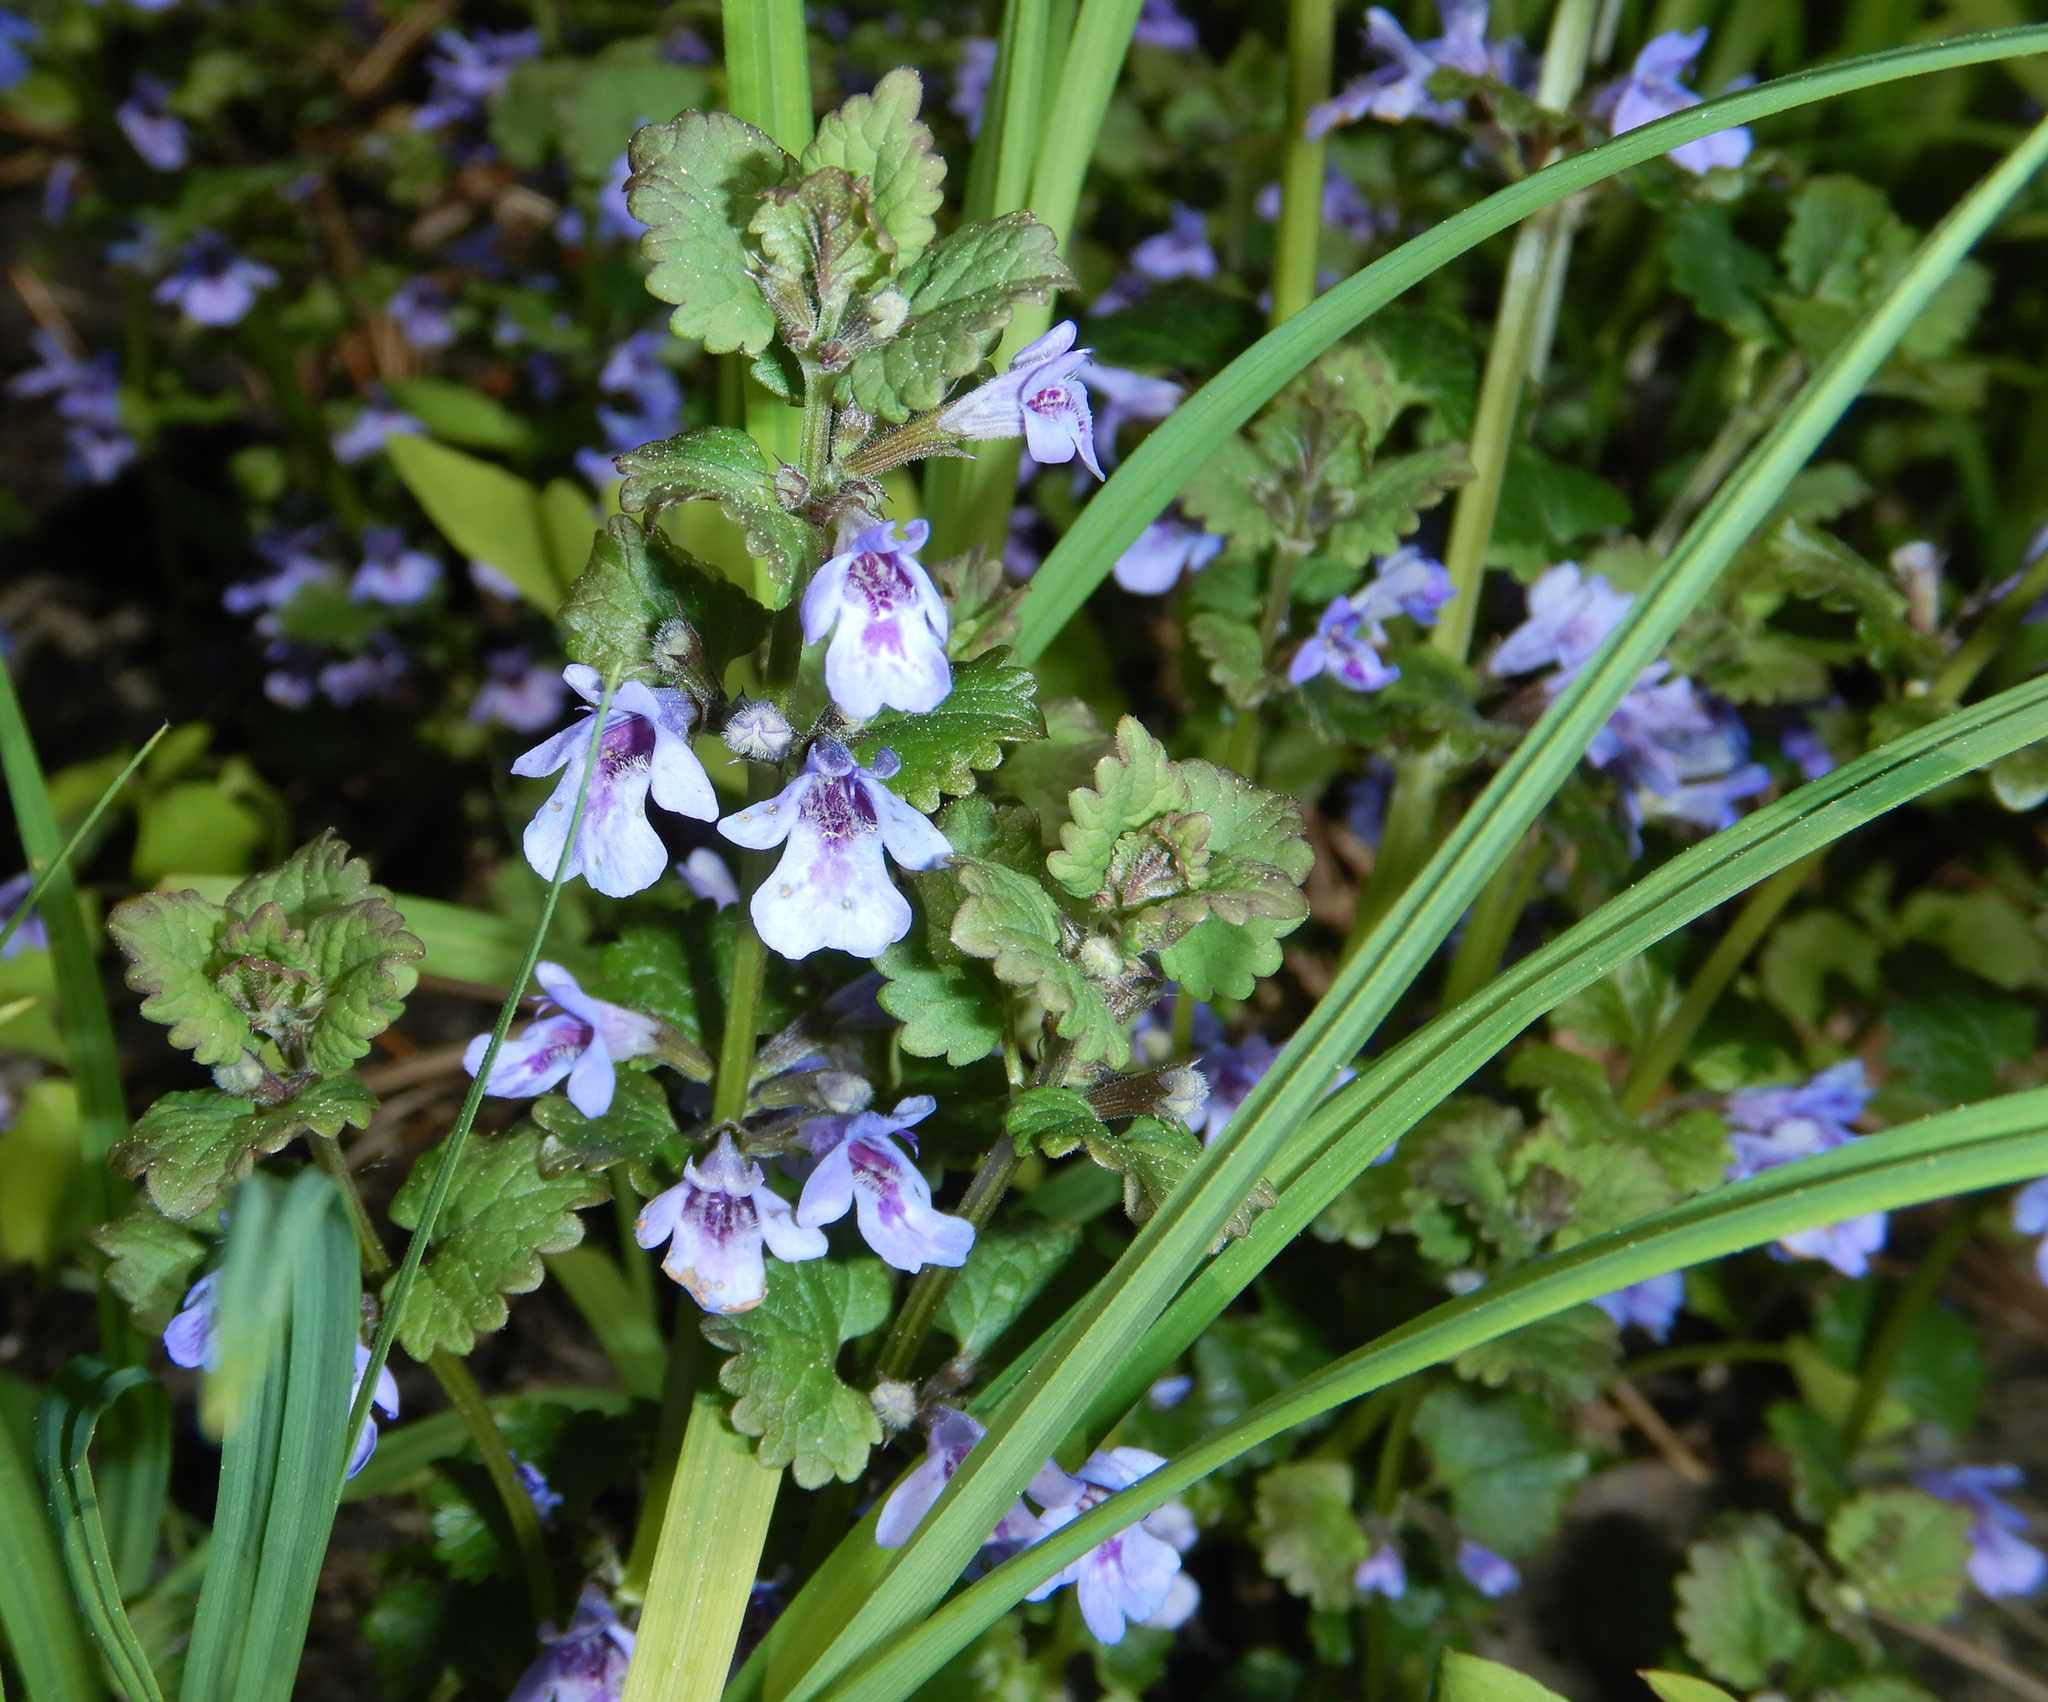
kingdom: Plantae
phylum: Tracheophyta
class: Magnoliopsida
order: Lamiales
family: Lamiaceae
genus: Glechoma
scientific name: Glechoma hederacea
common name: Ground ivy
